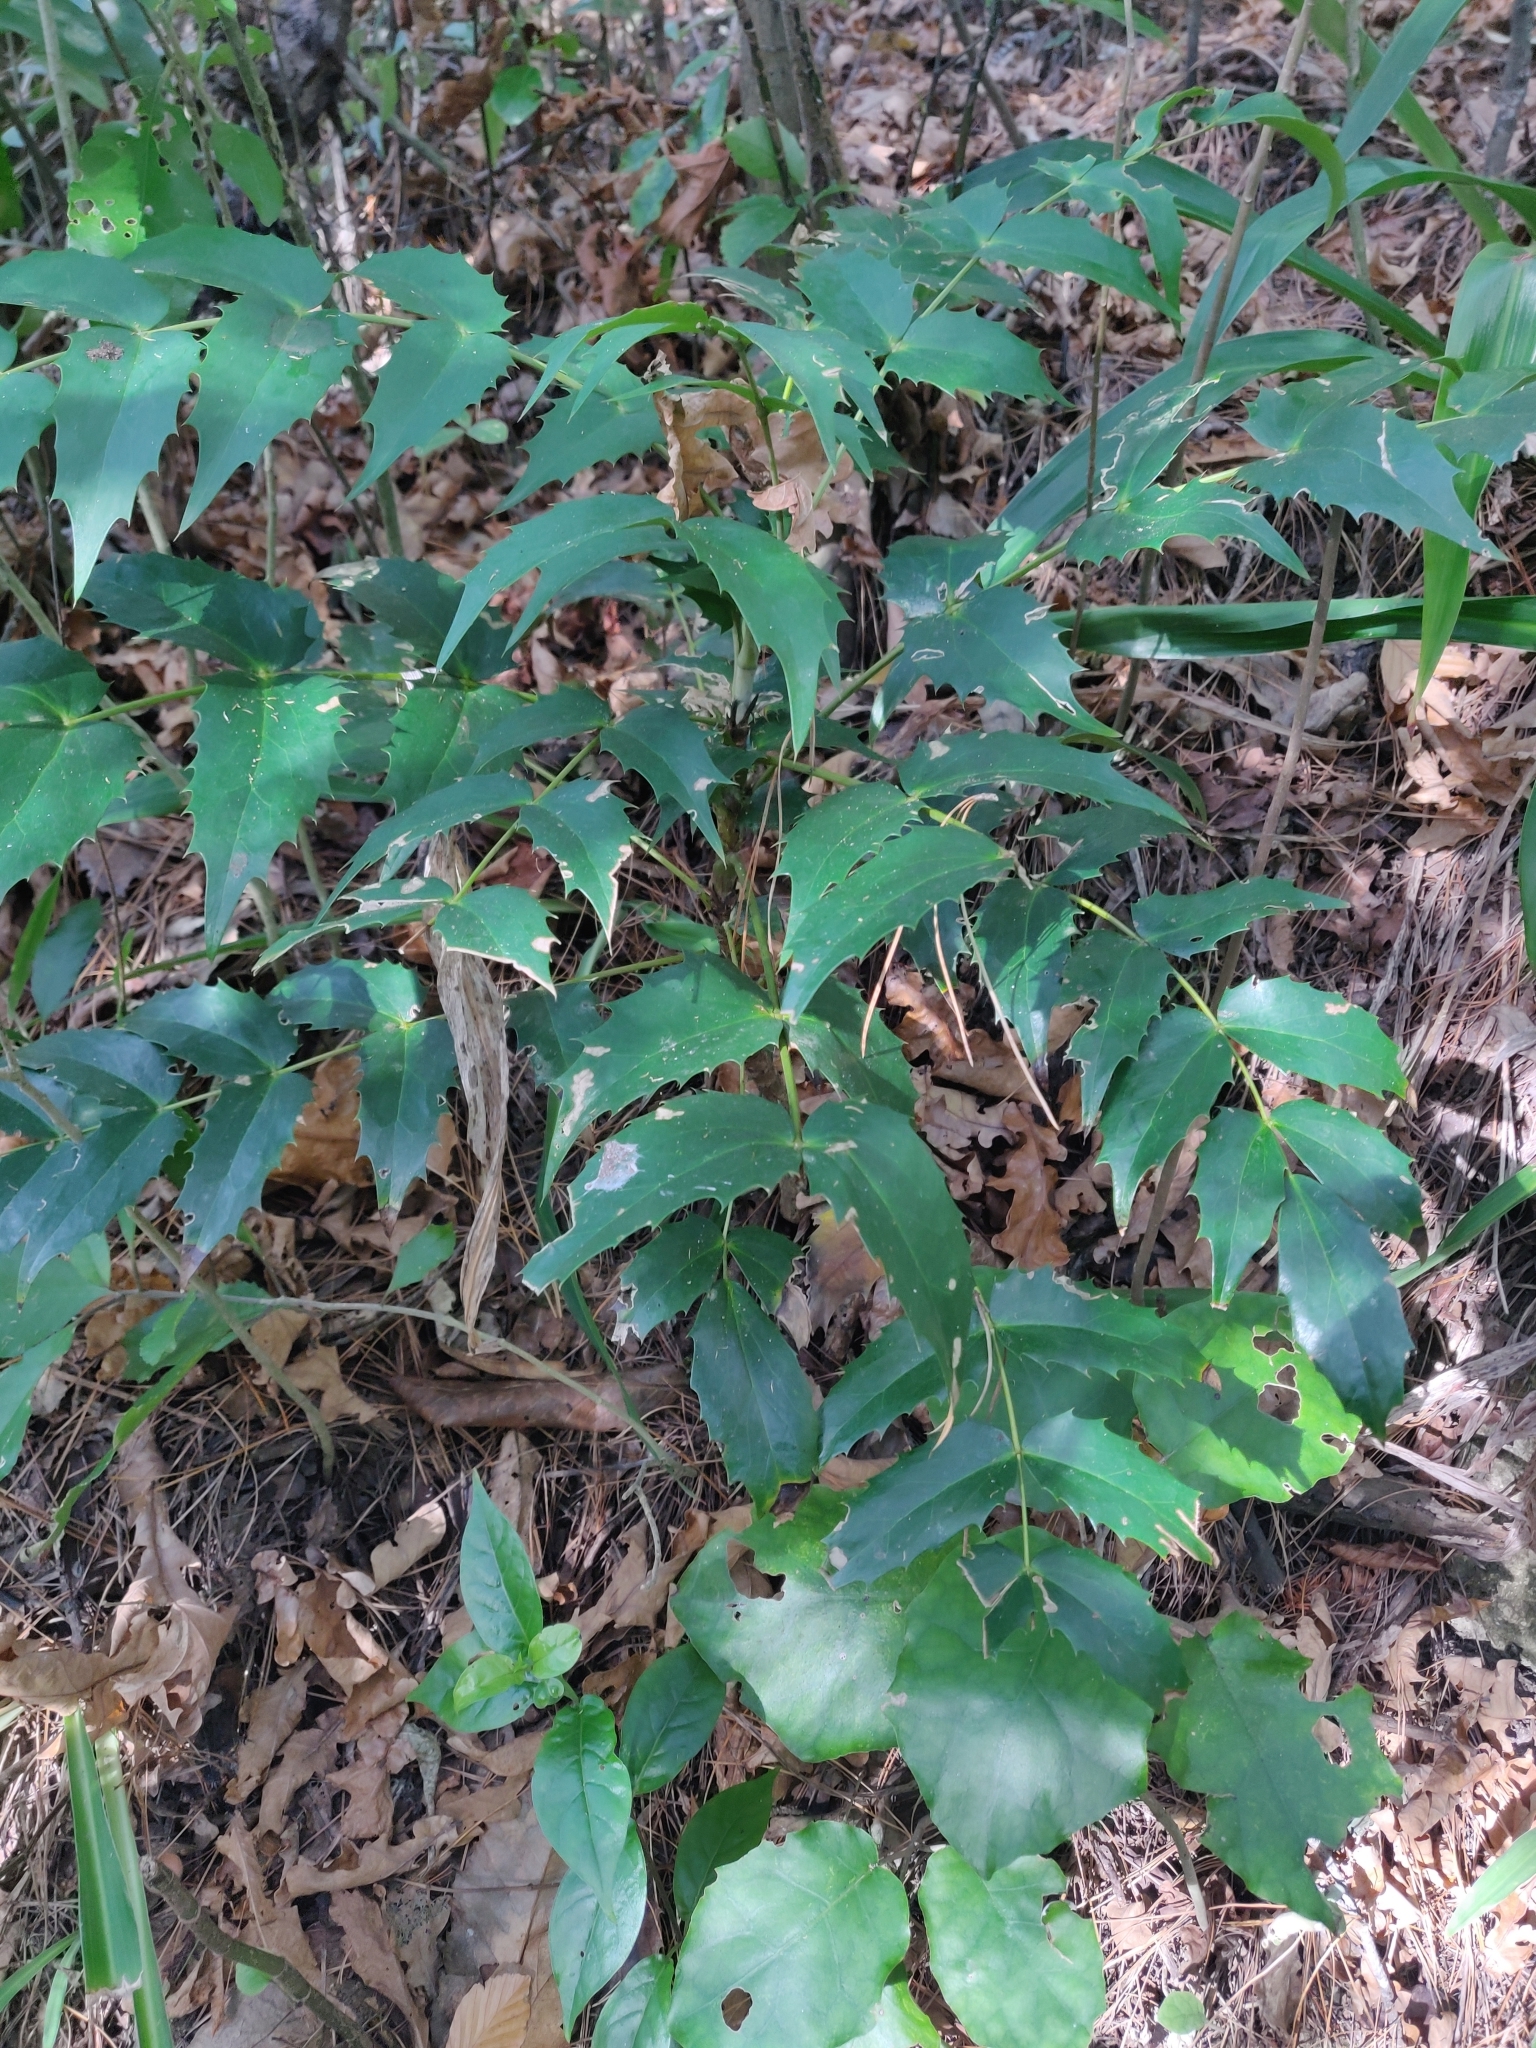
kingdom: Plantae
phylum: Tracheophyta
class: Magnoliopsida
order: Ranunculales
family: Berberidaceae
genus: Berberis
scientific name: Berberis hortensis
